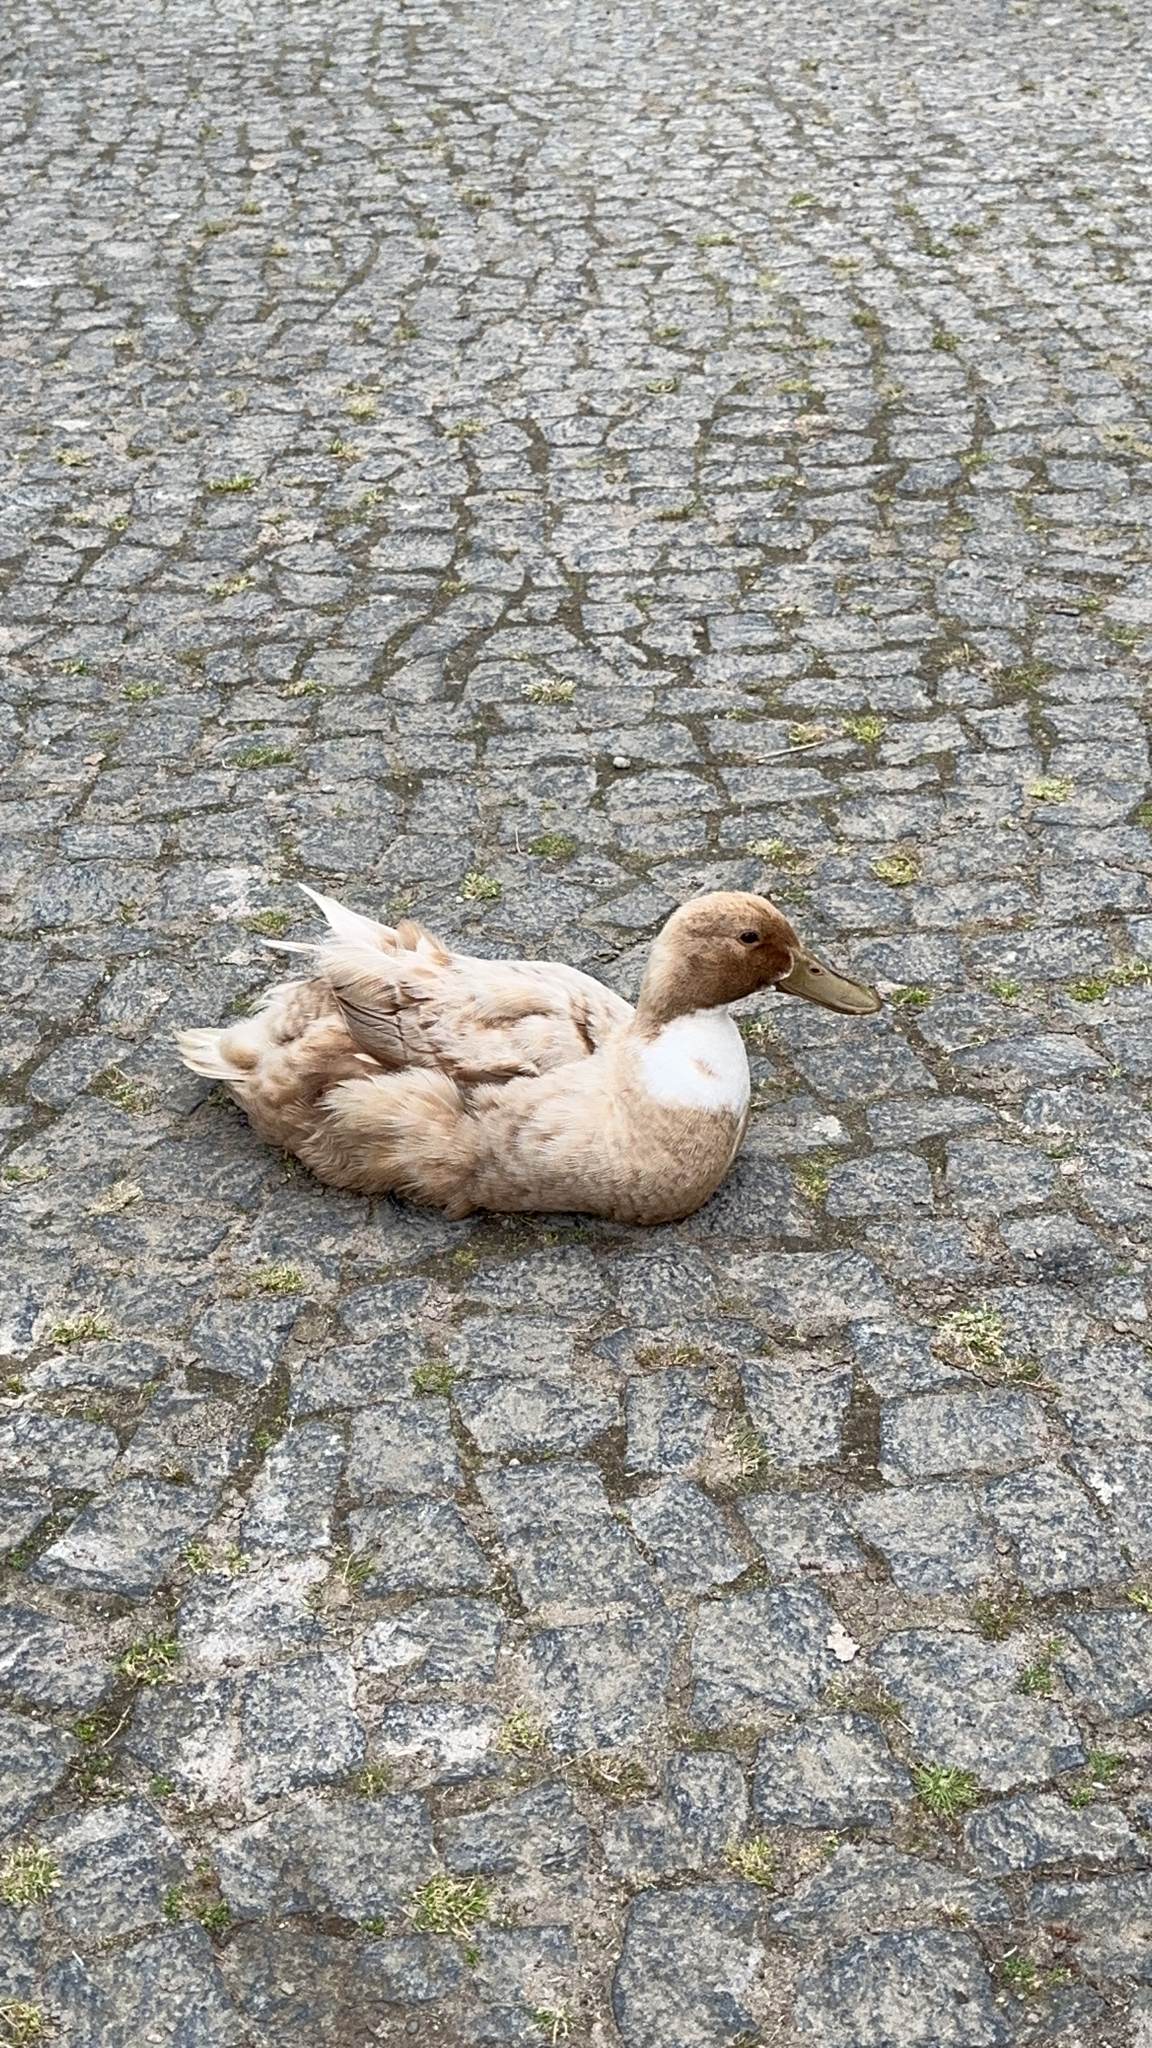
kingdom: Animalia
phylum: Chordata
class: Aves
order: Anseriformes
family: Anatidae
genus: Anas
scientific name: Anas platyrhynchos
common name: Mallard
